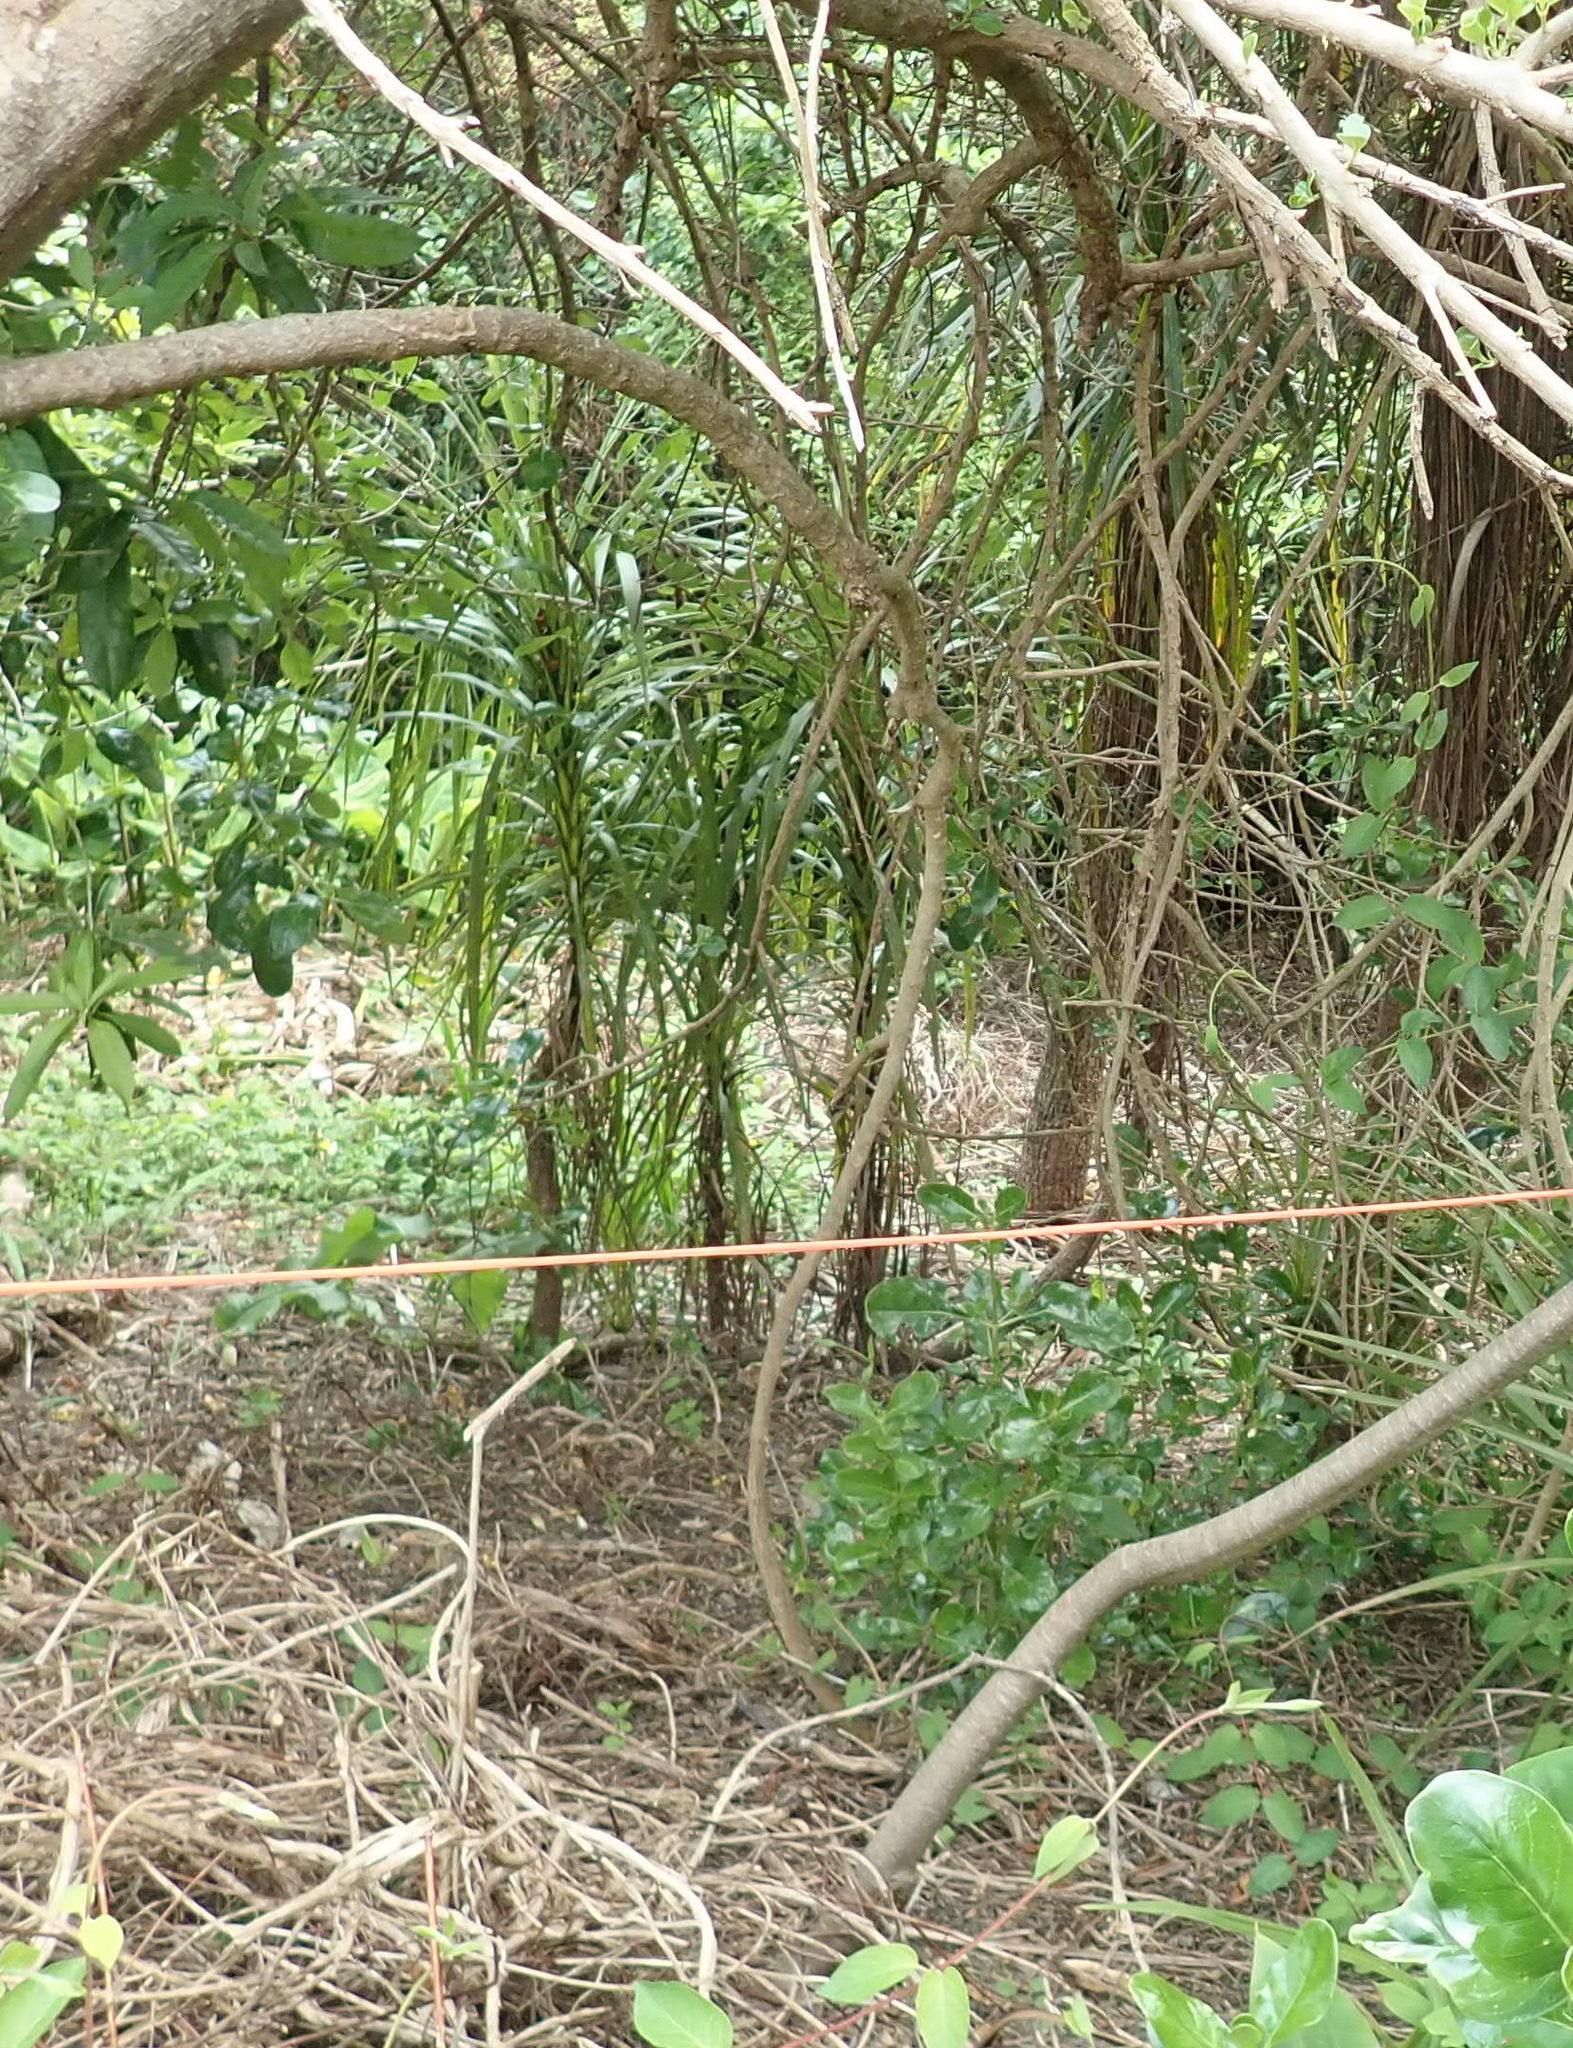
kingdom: Plantae
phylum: Tracheophyta
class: Liliopsida
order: Asparagales
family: Asparagaceae
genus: Cordyline
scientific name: Cordyline australis
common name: Cabbage-palm
